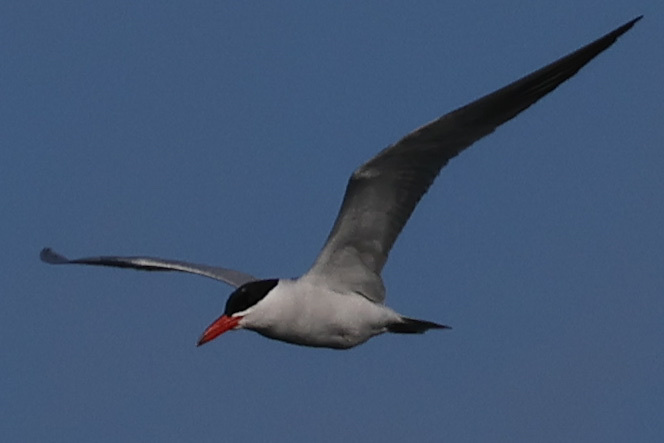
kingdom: Animalia
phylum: Chordata
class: Aves
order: Charadriiformes
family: Laridae
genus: Hydroprogne
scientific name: Hydroprogne caspia
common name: Caspian tern
